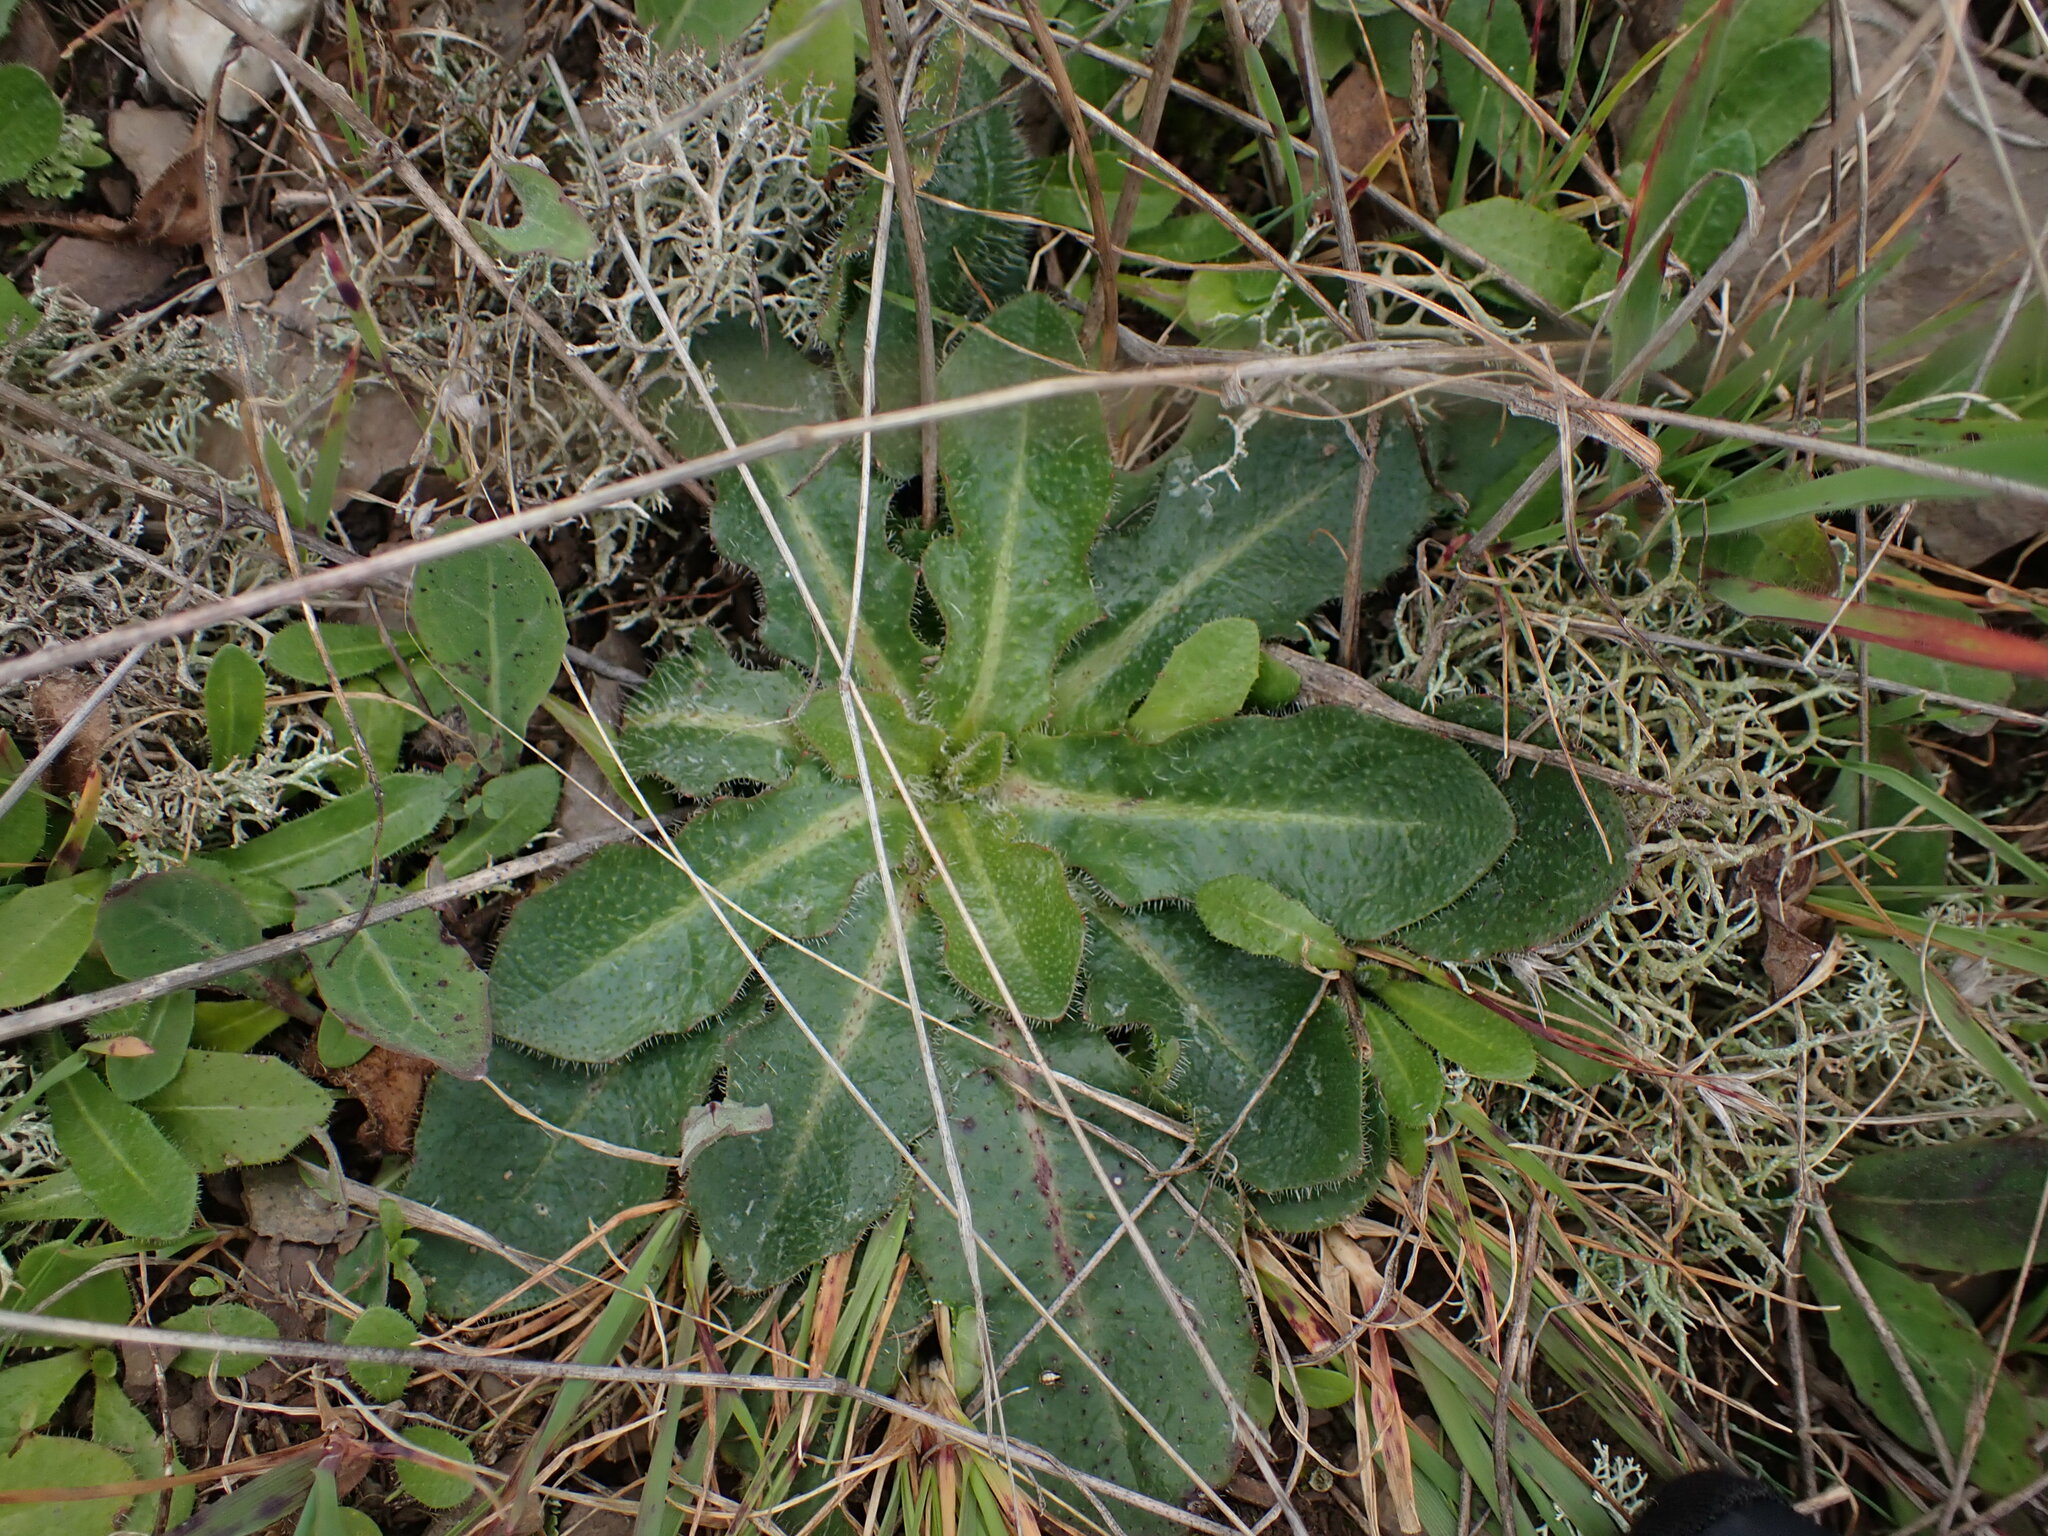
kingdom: Plantae
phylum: Tracheophyta
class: Magnoliopsida
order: Asterales
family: Asteraceae
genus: Hypochaeris
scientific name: Hypochaeris radicata
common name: Flatweed
